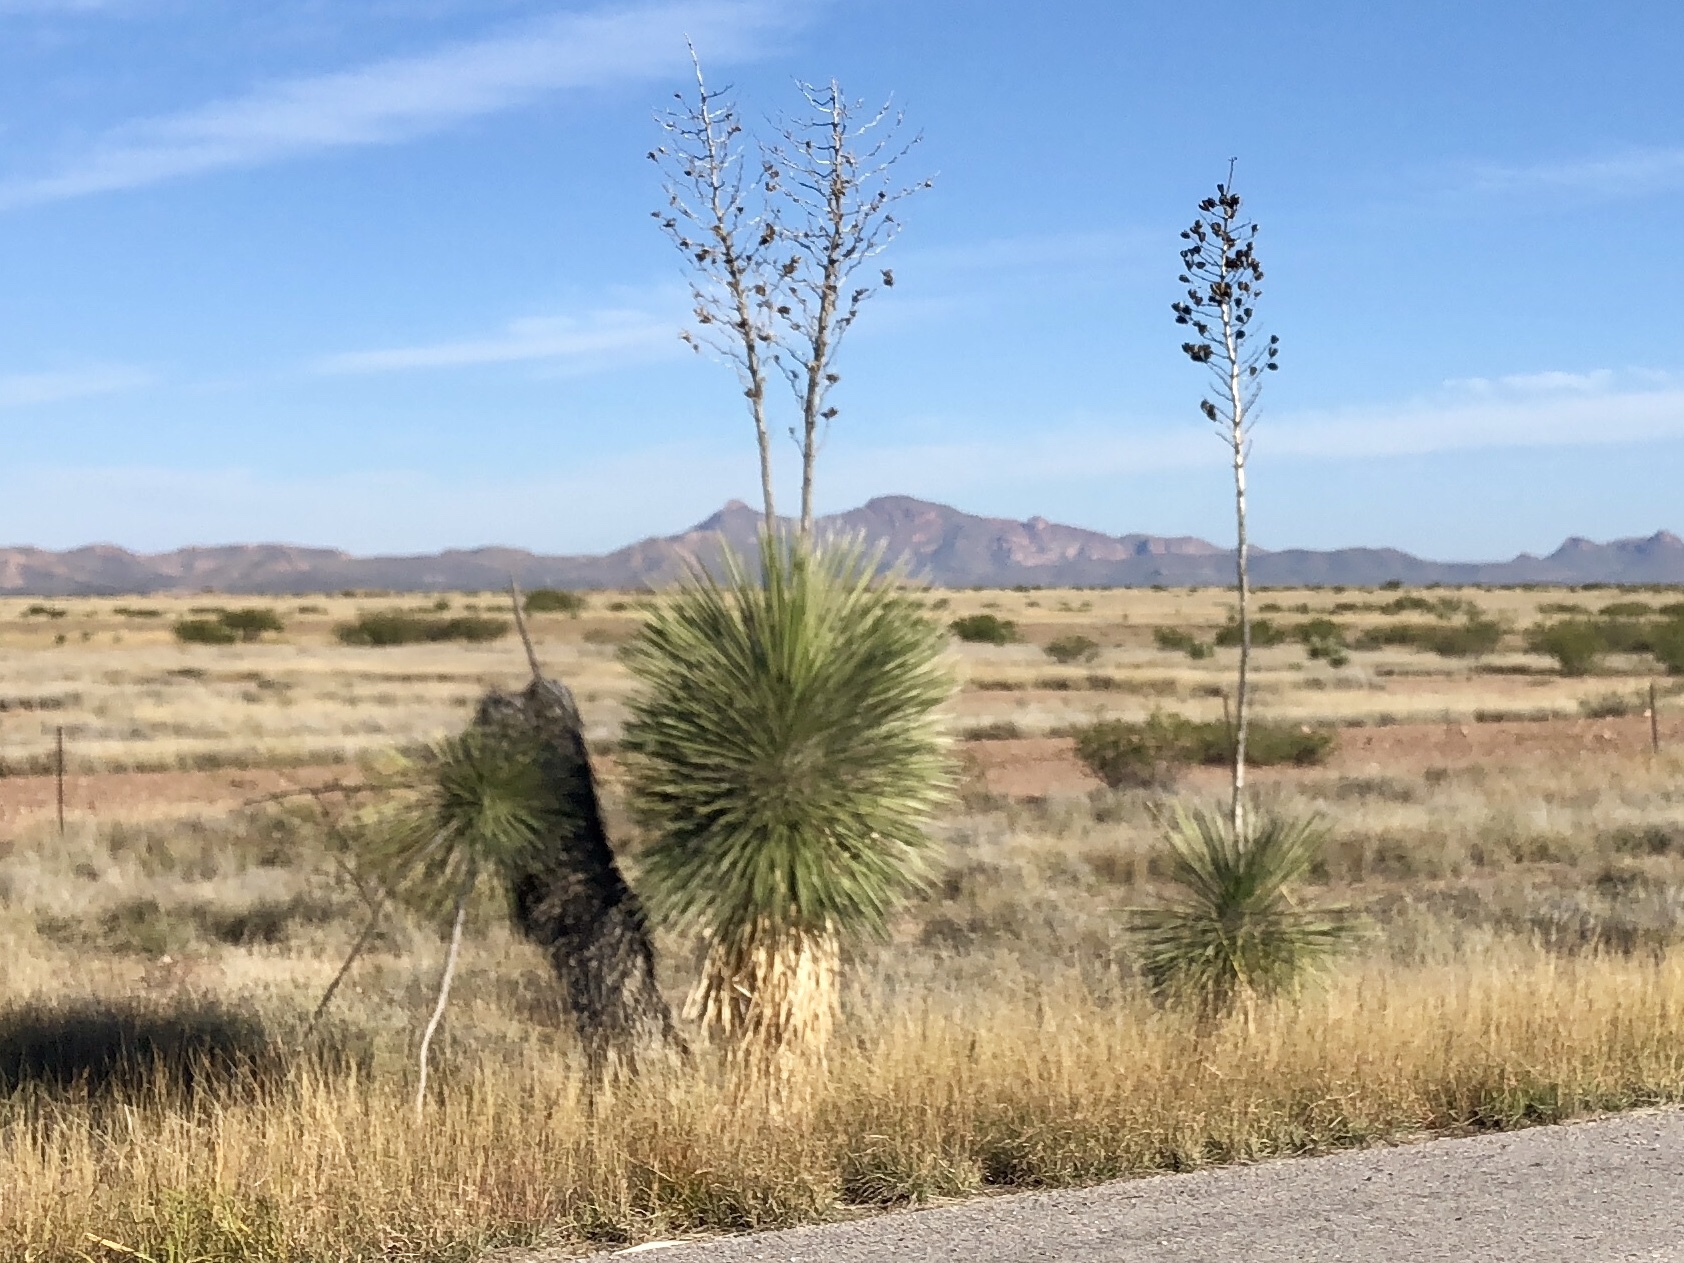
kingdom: Plantae
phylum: Tracheophyta
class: Liliopsida
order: Asparagales
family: Asparagaceae
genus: Yucca
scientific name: Yucca elata
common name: Palmella
